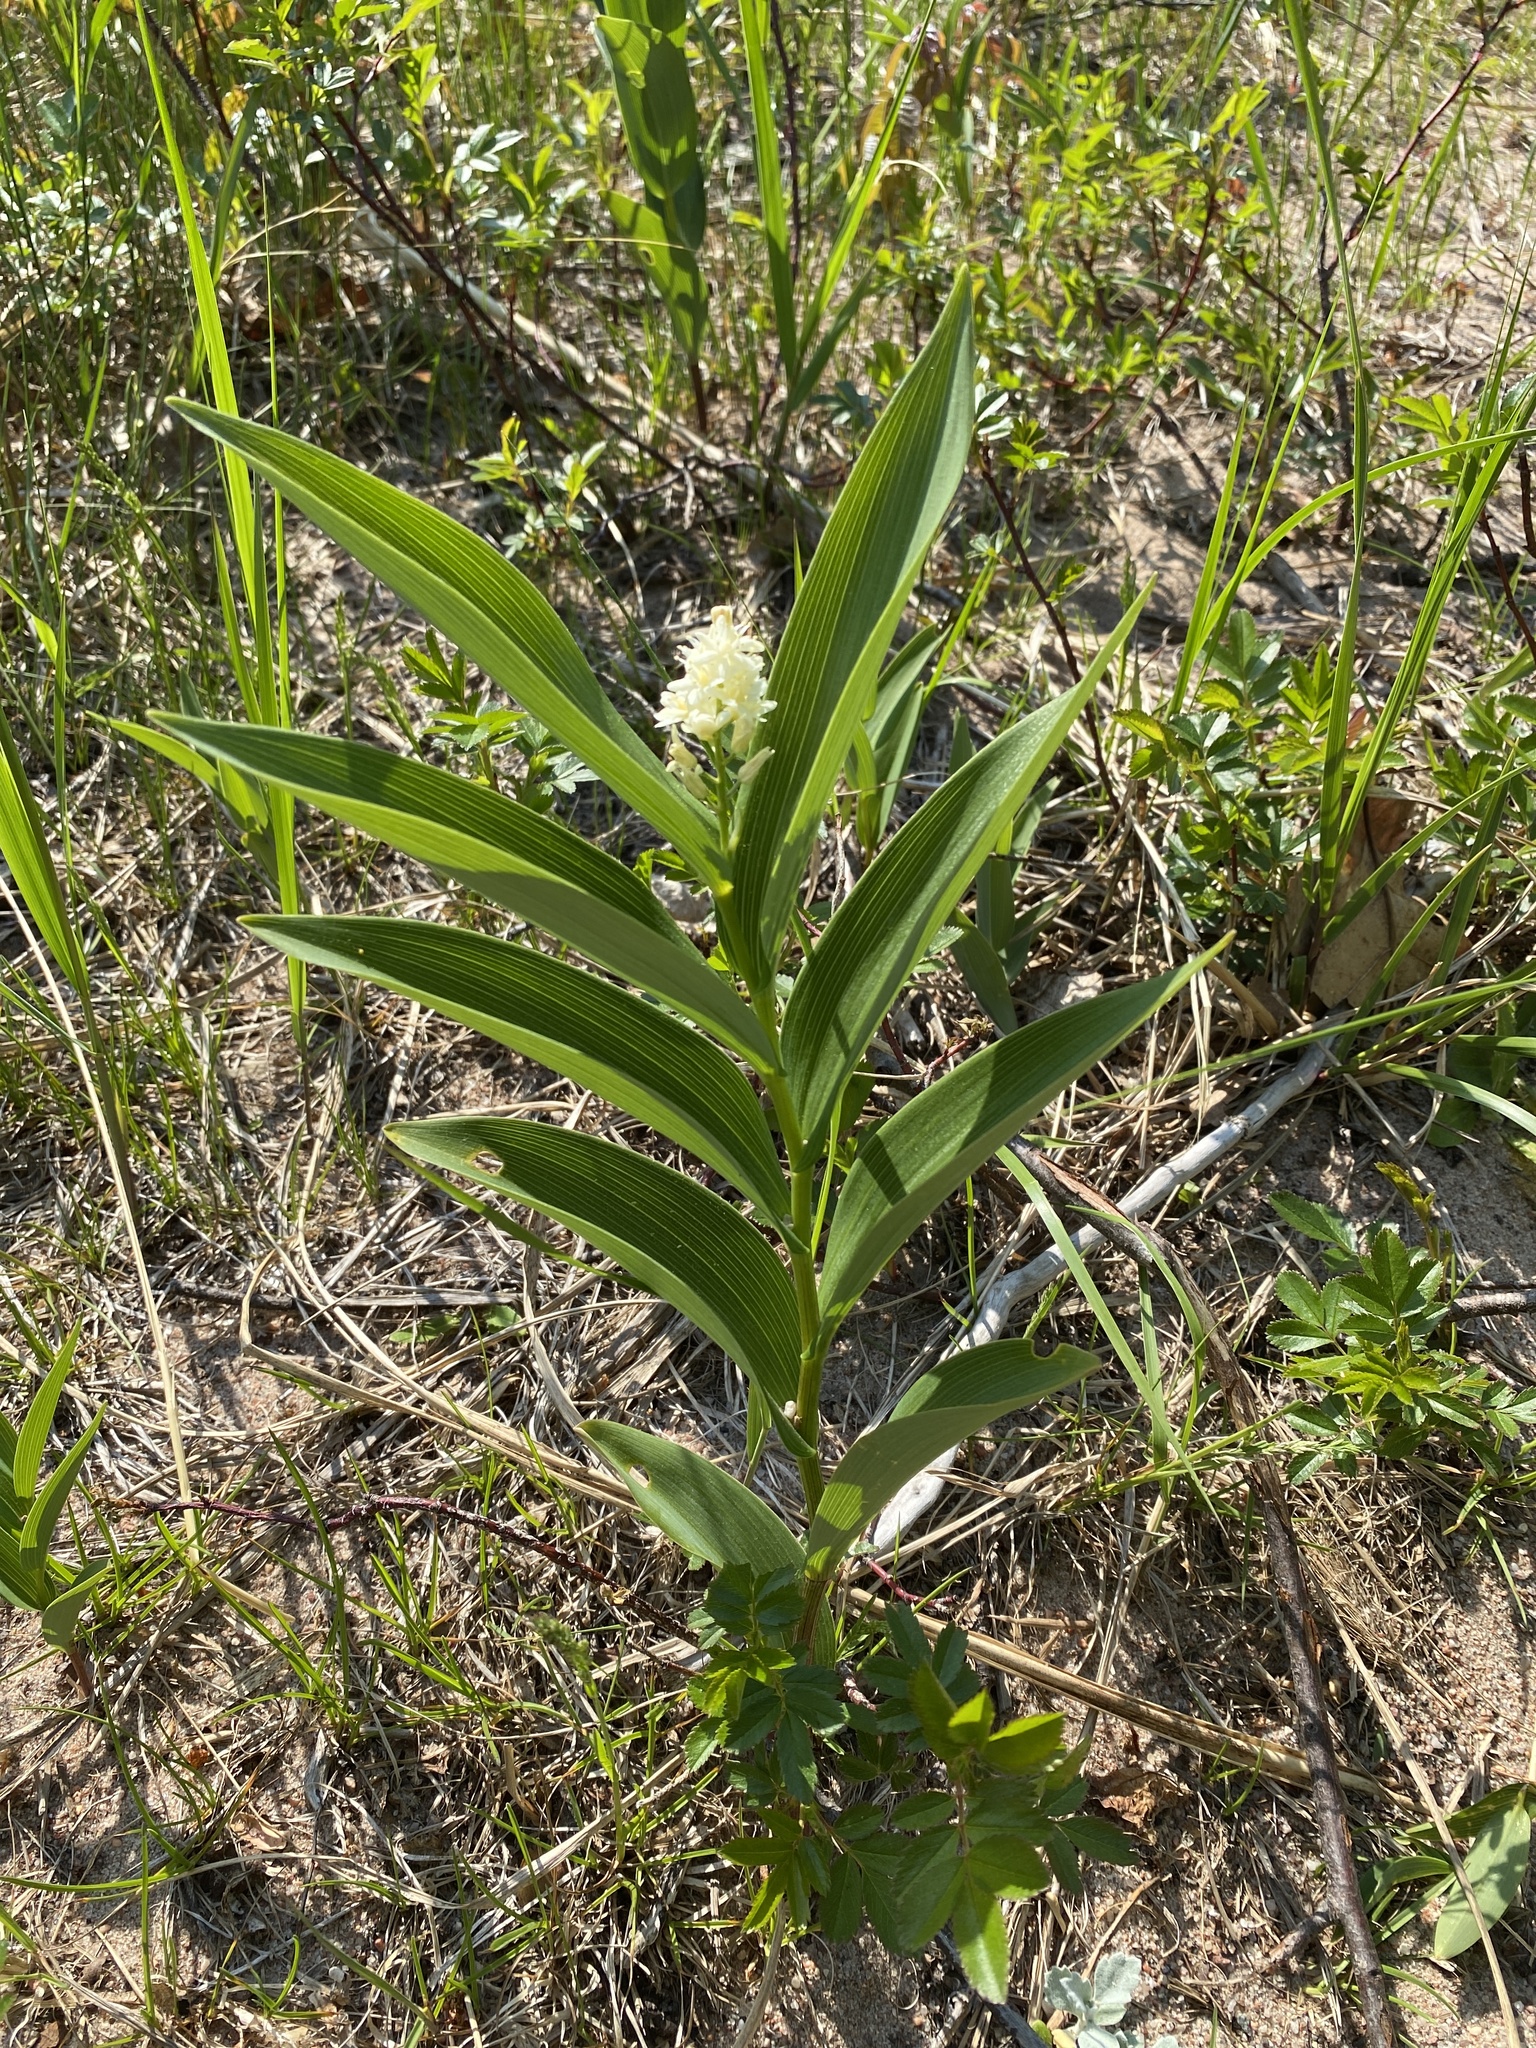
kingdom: Plantae
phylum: Tracheophyta
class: Liliopsida
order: Asparagales
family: Asparagaceae
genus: Maianthemum
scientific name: Maianthemum stellatum
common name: Little false solomon's seal
